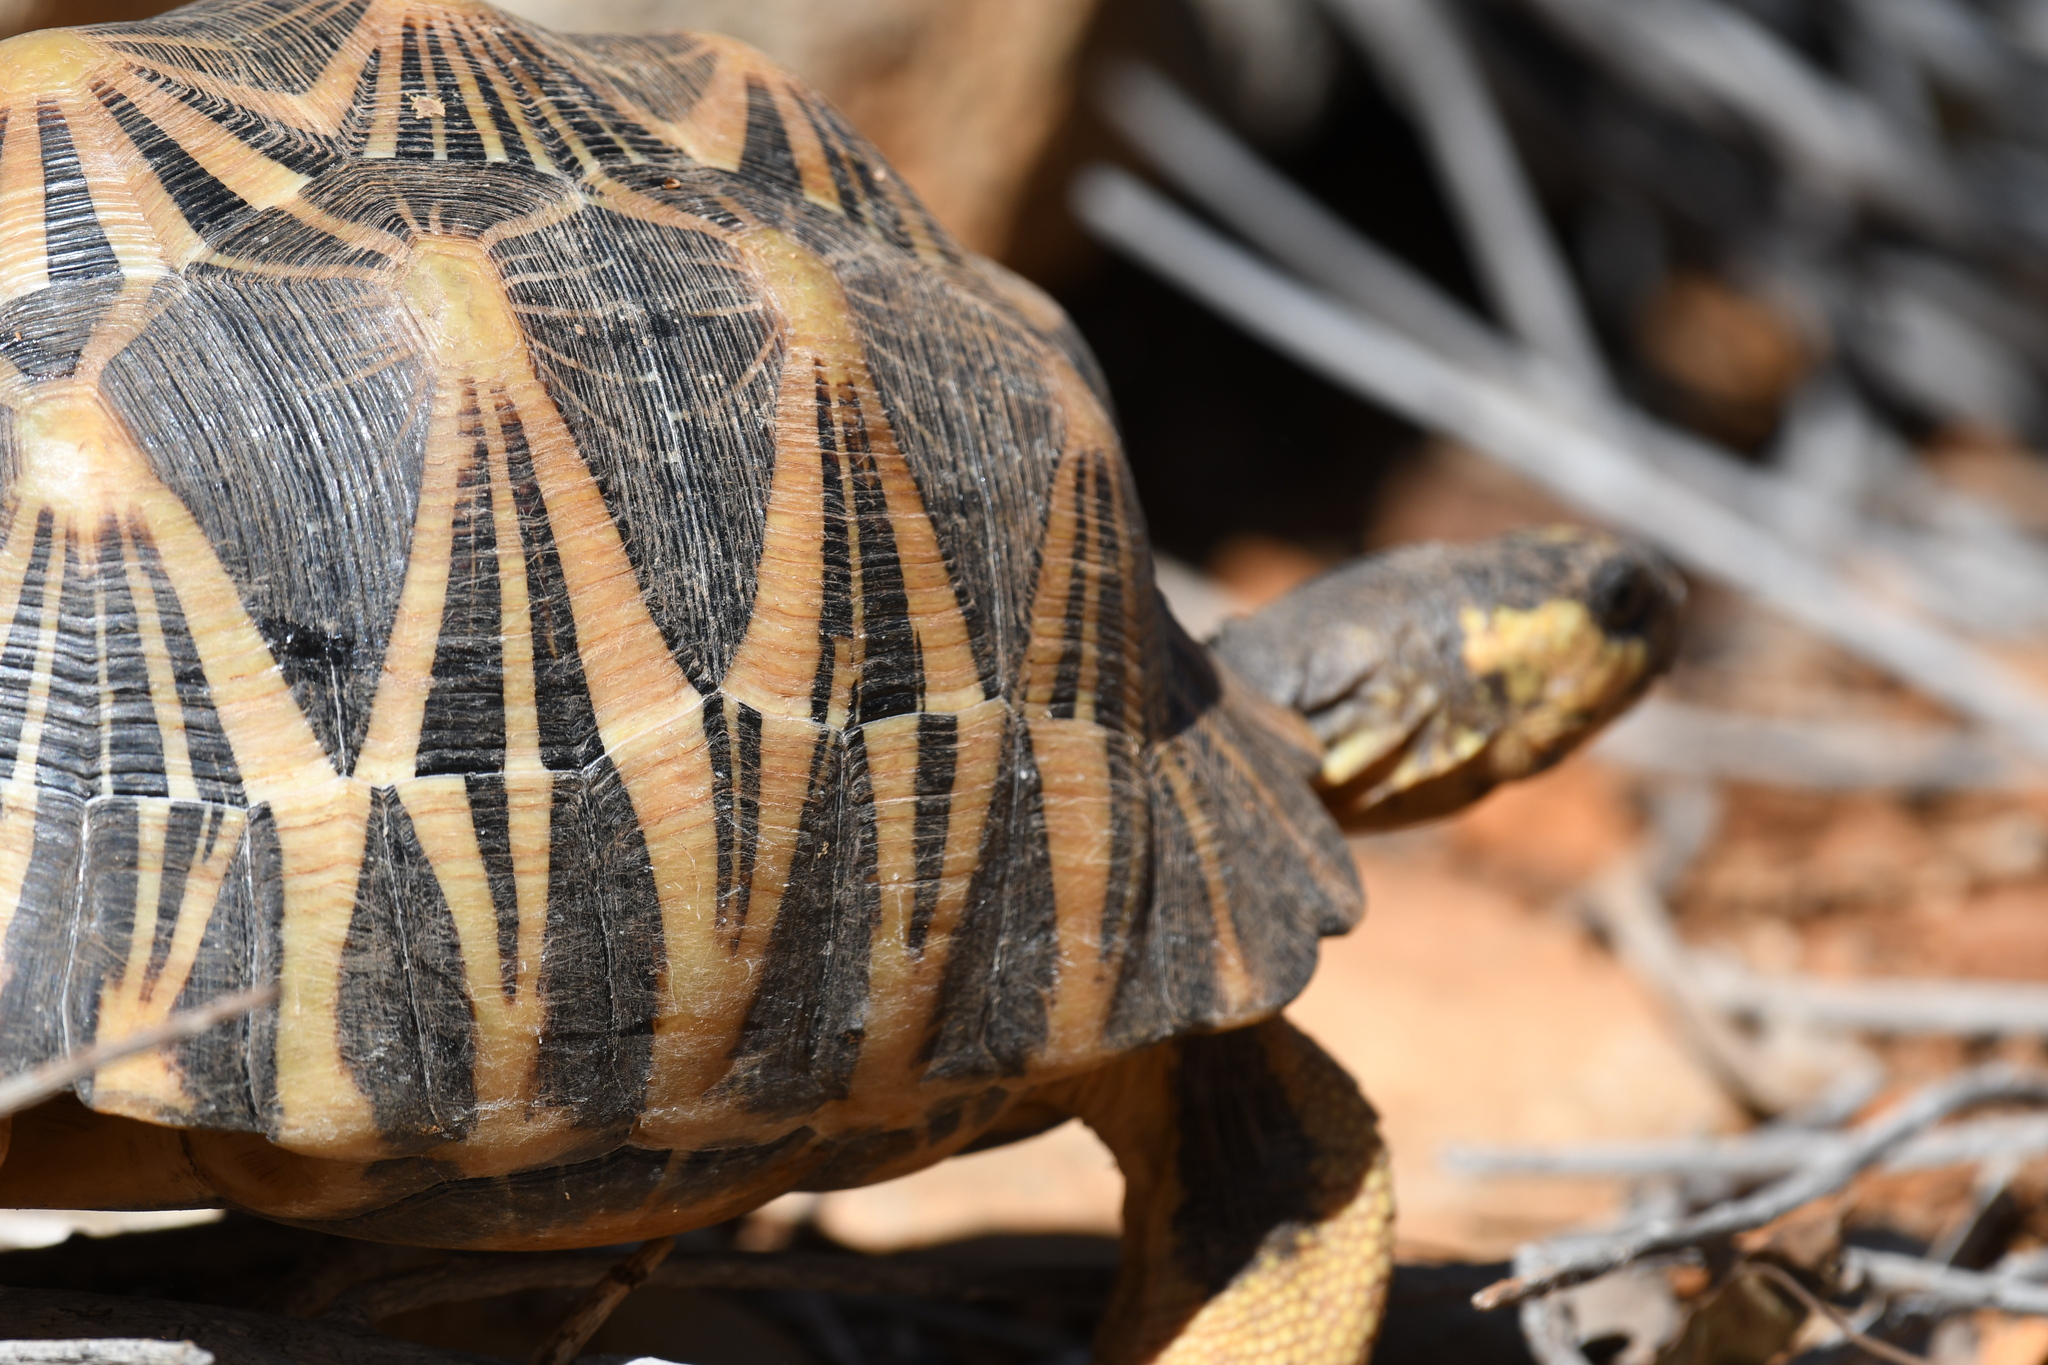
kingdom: Animalia
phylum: Chordata
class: Testudines
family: Testudinidae
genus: Astrochelys
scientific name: Astrochelys radiata
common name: Radiated tortoise
